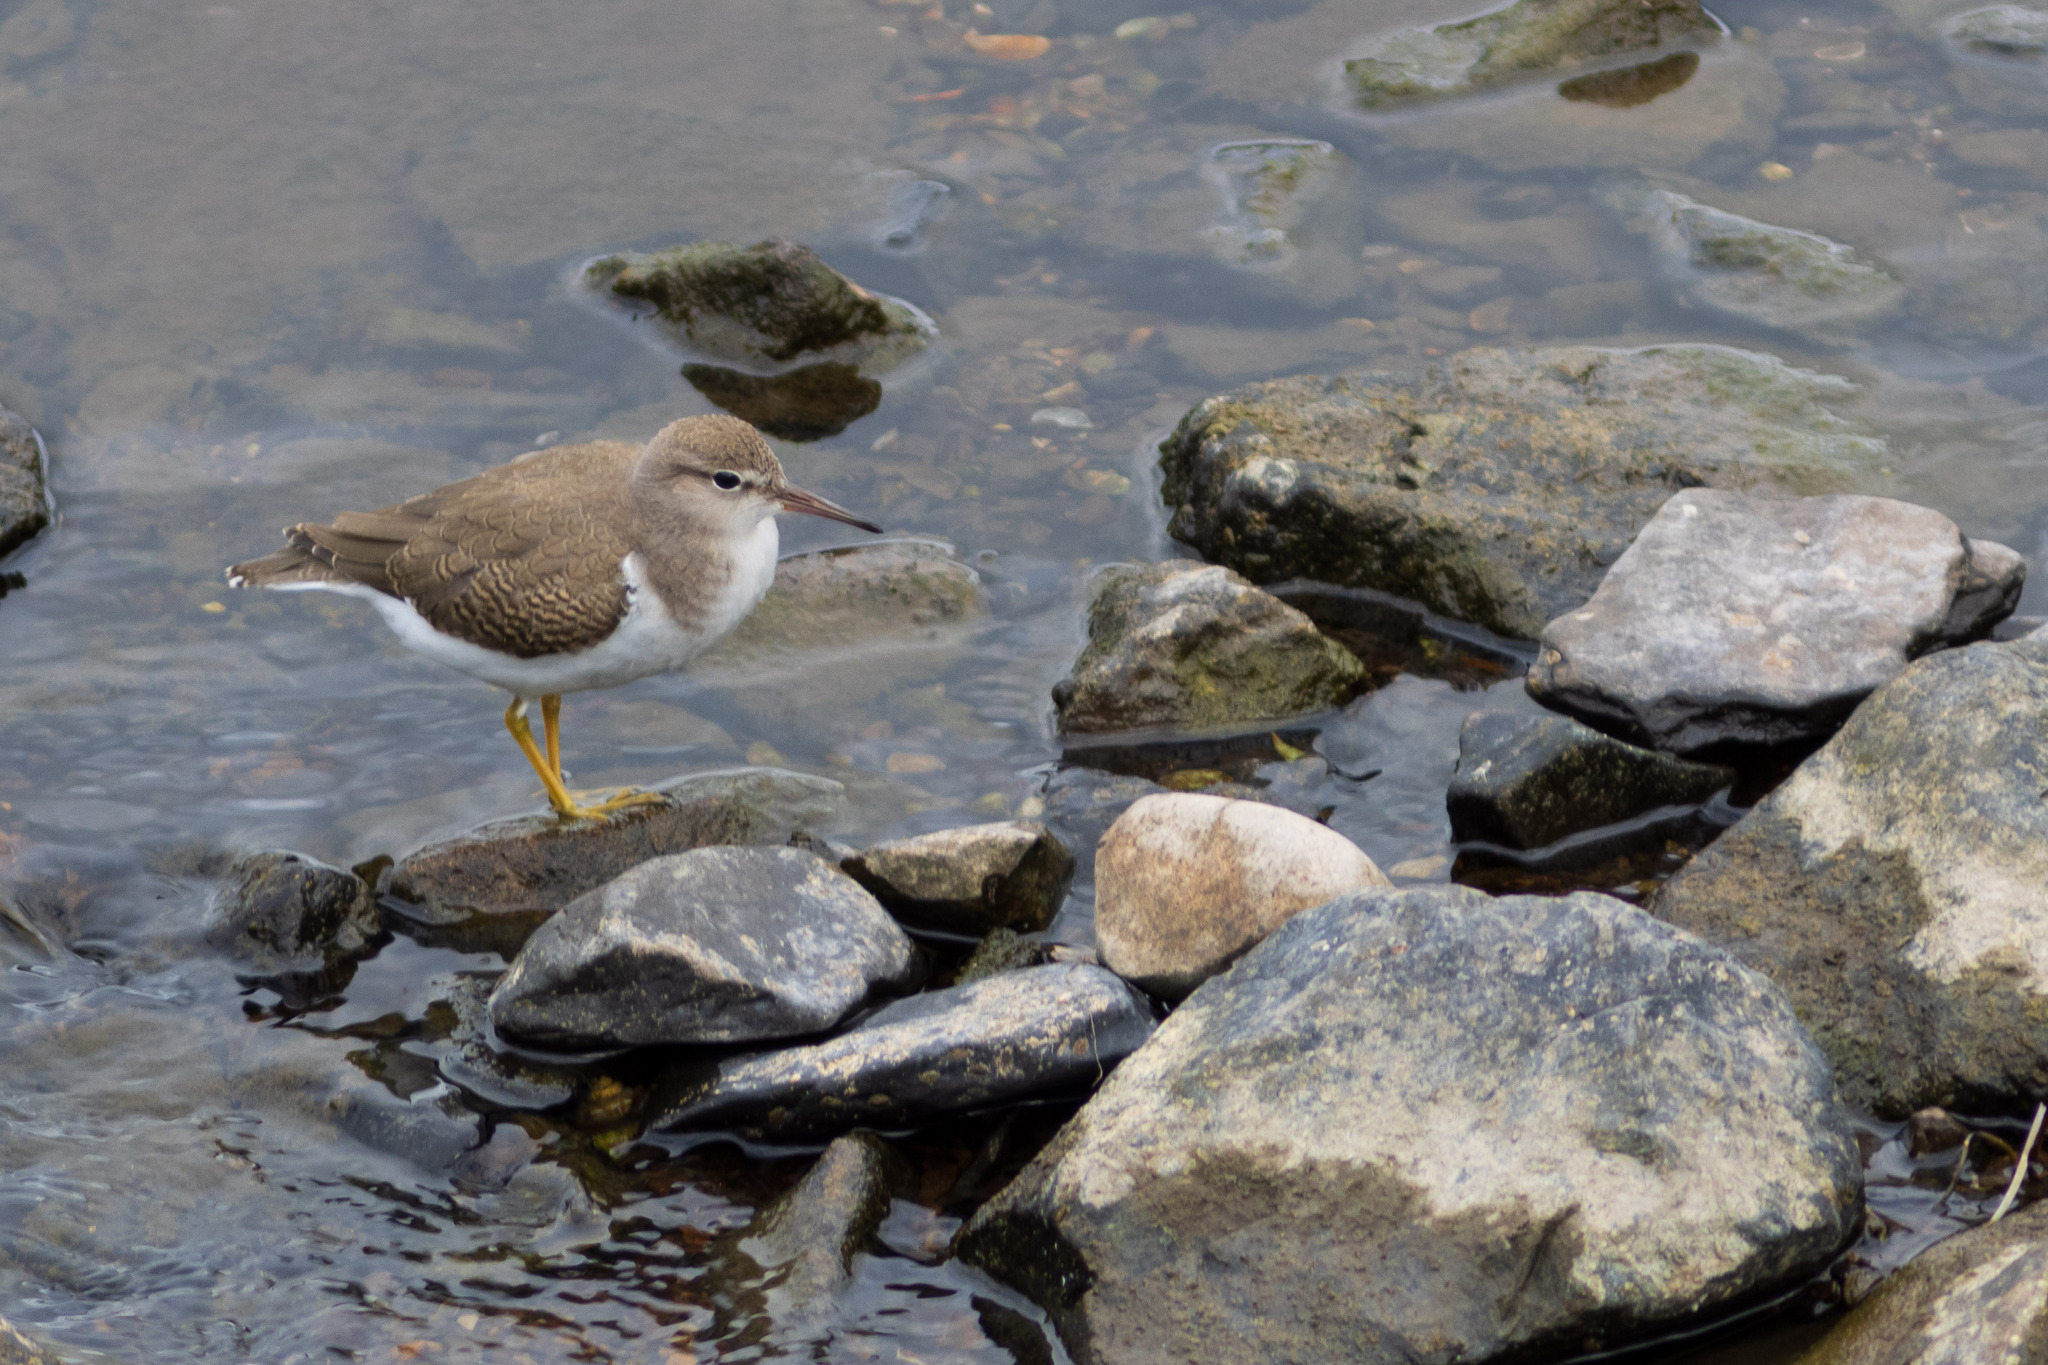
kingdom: Animalia
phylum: Chordata
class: Aves
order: Charadriiformes
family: Scolopacidae
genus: Actitis
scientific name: Actitis macularius
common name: Spotted sandpiper
